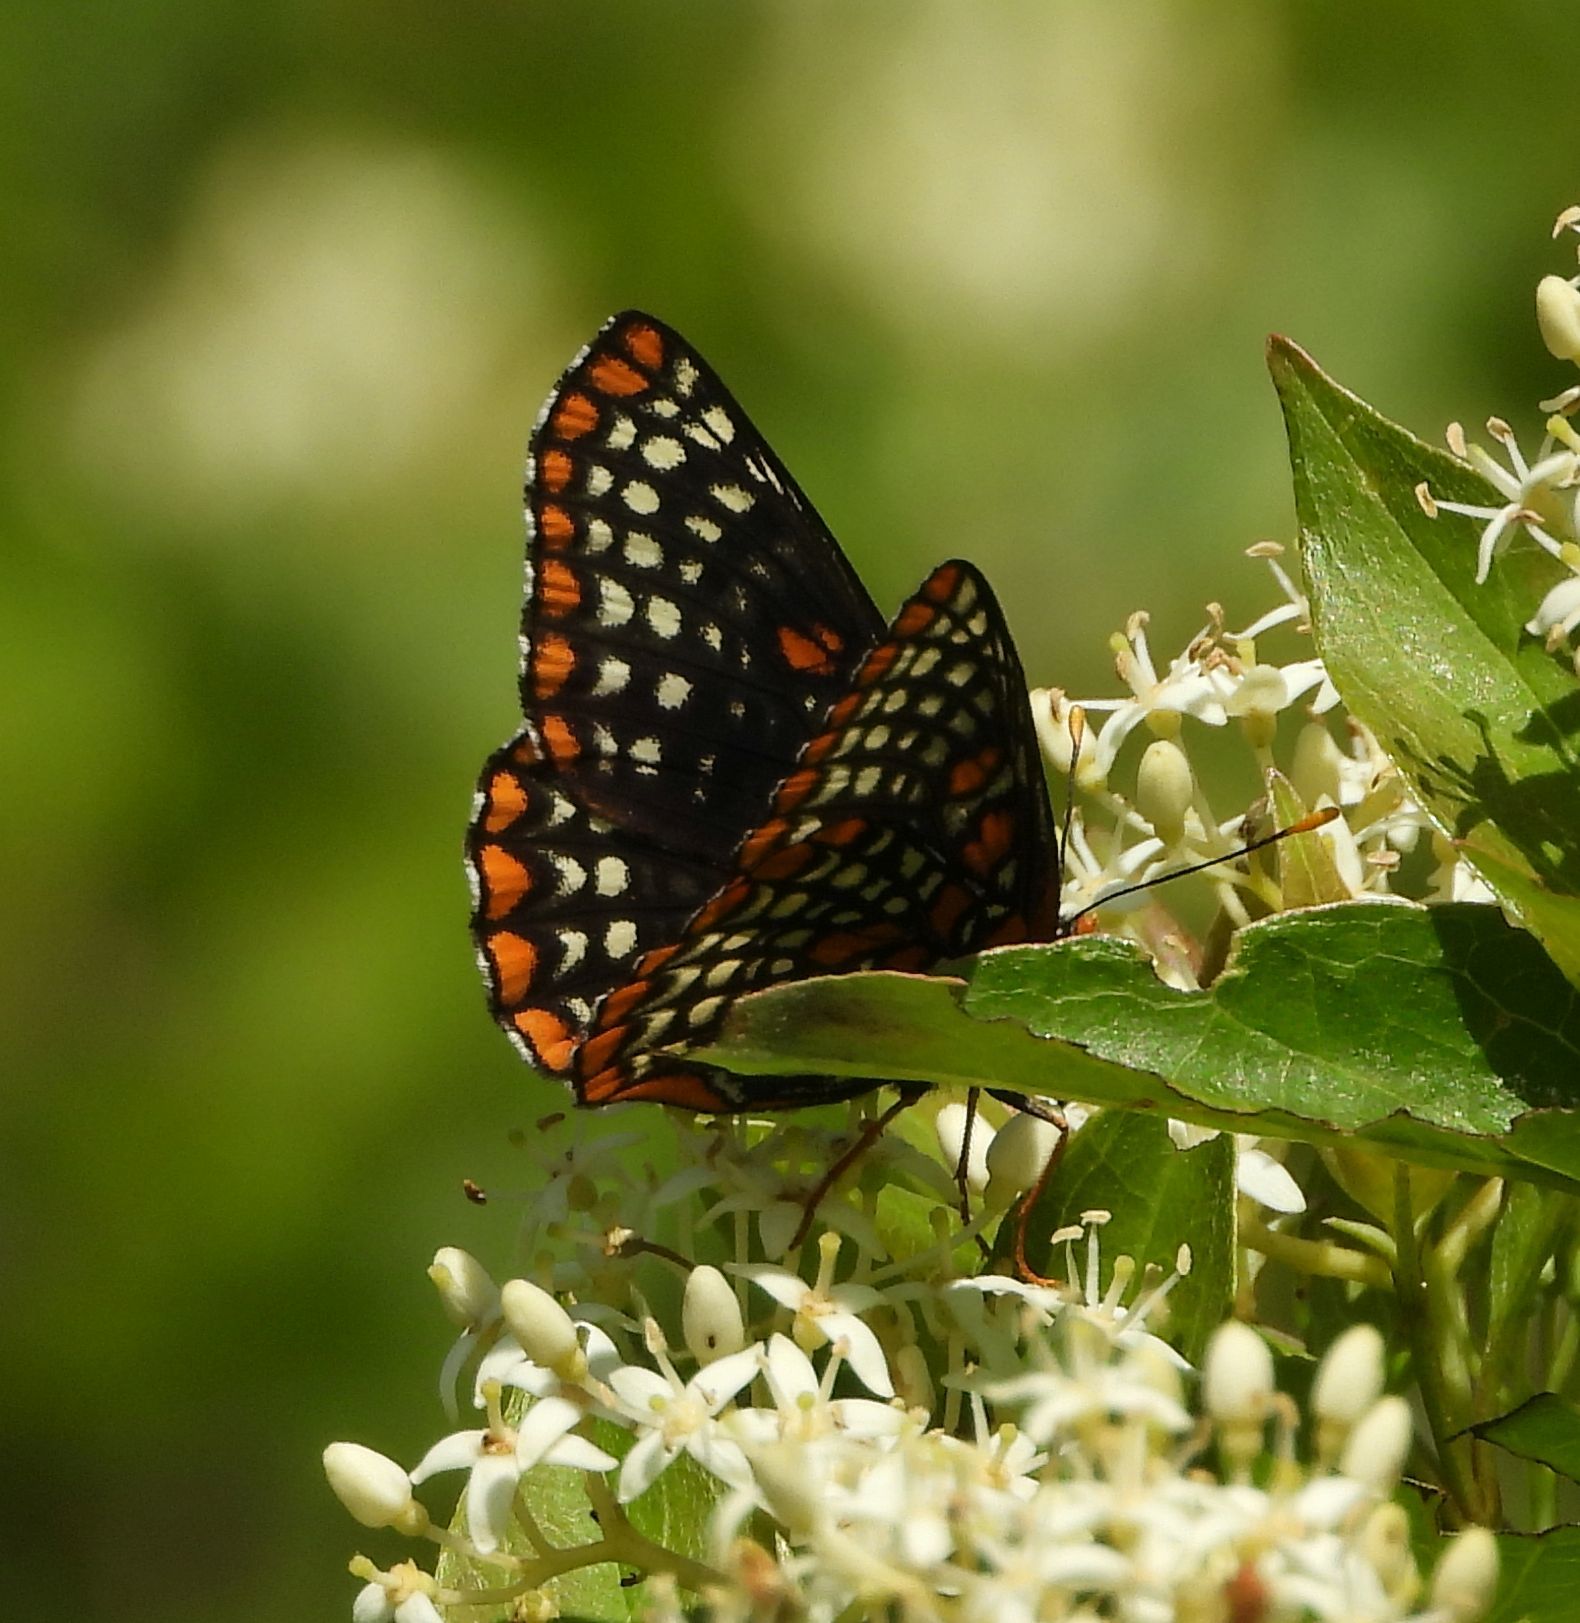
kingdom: Animalia
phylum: Arthropoda
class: Insecta
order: Lepidoptera
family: Nymphalidae
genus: Euphydryas
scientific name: Euphydryas phaeton
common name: Baltimore checkerspot
